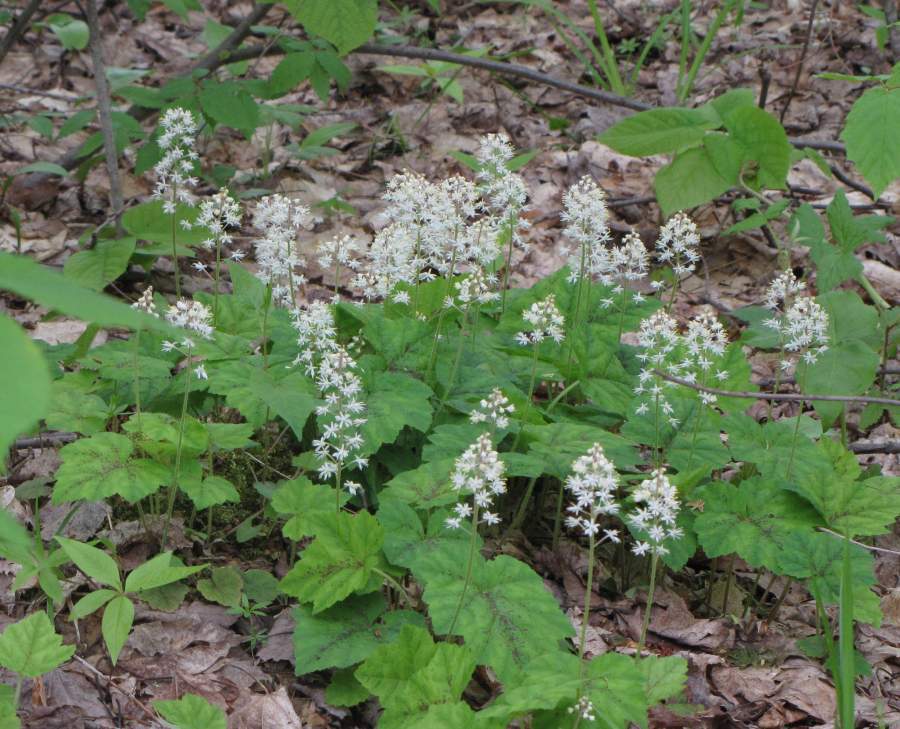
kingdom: Plantae
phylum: Tracheophyta
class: Magnoliopsida
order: Saxifragales
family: Saxifragaceae
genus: Tiarella
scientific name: Tiarella stolonifera
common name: Stoloniferous foamflower
